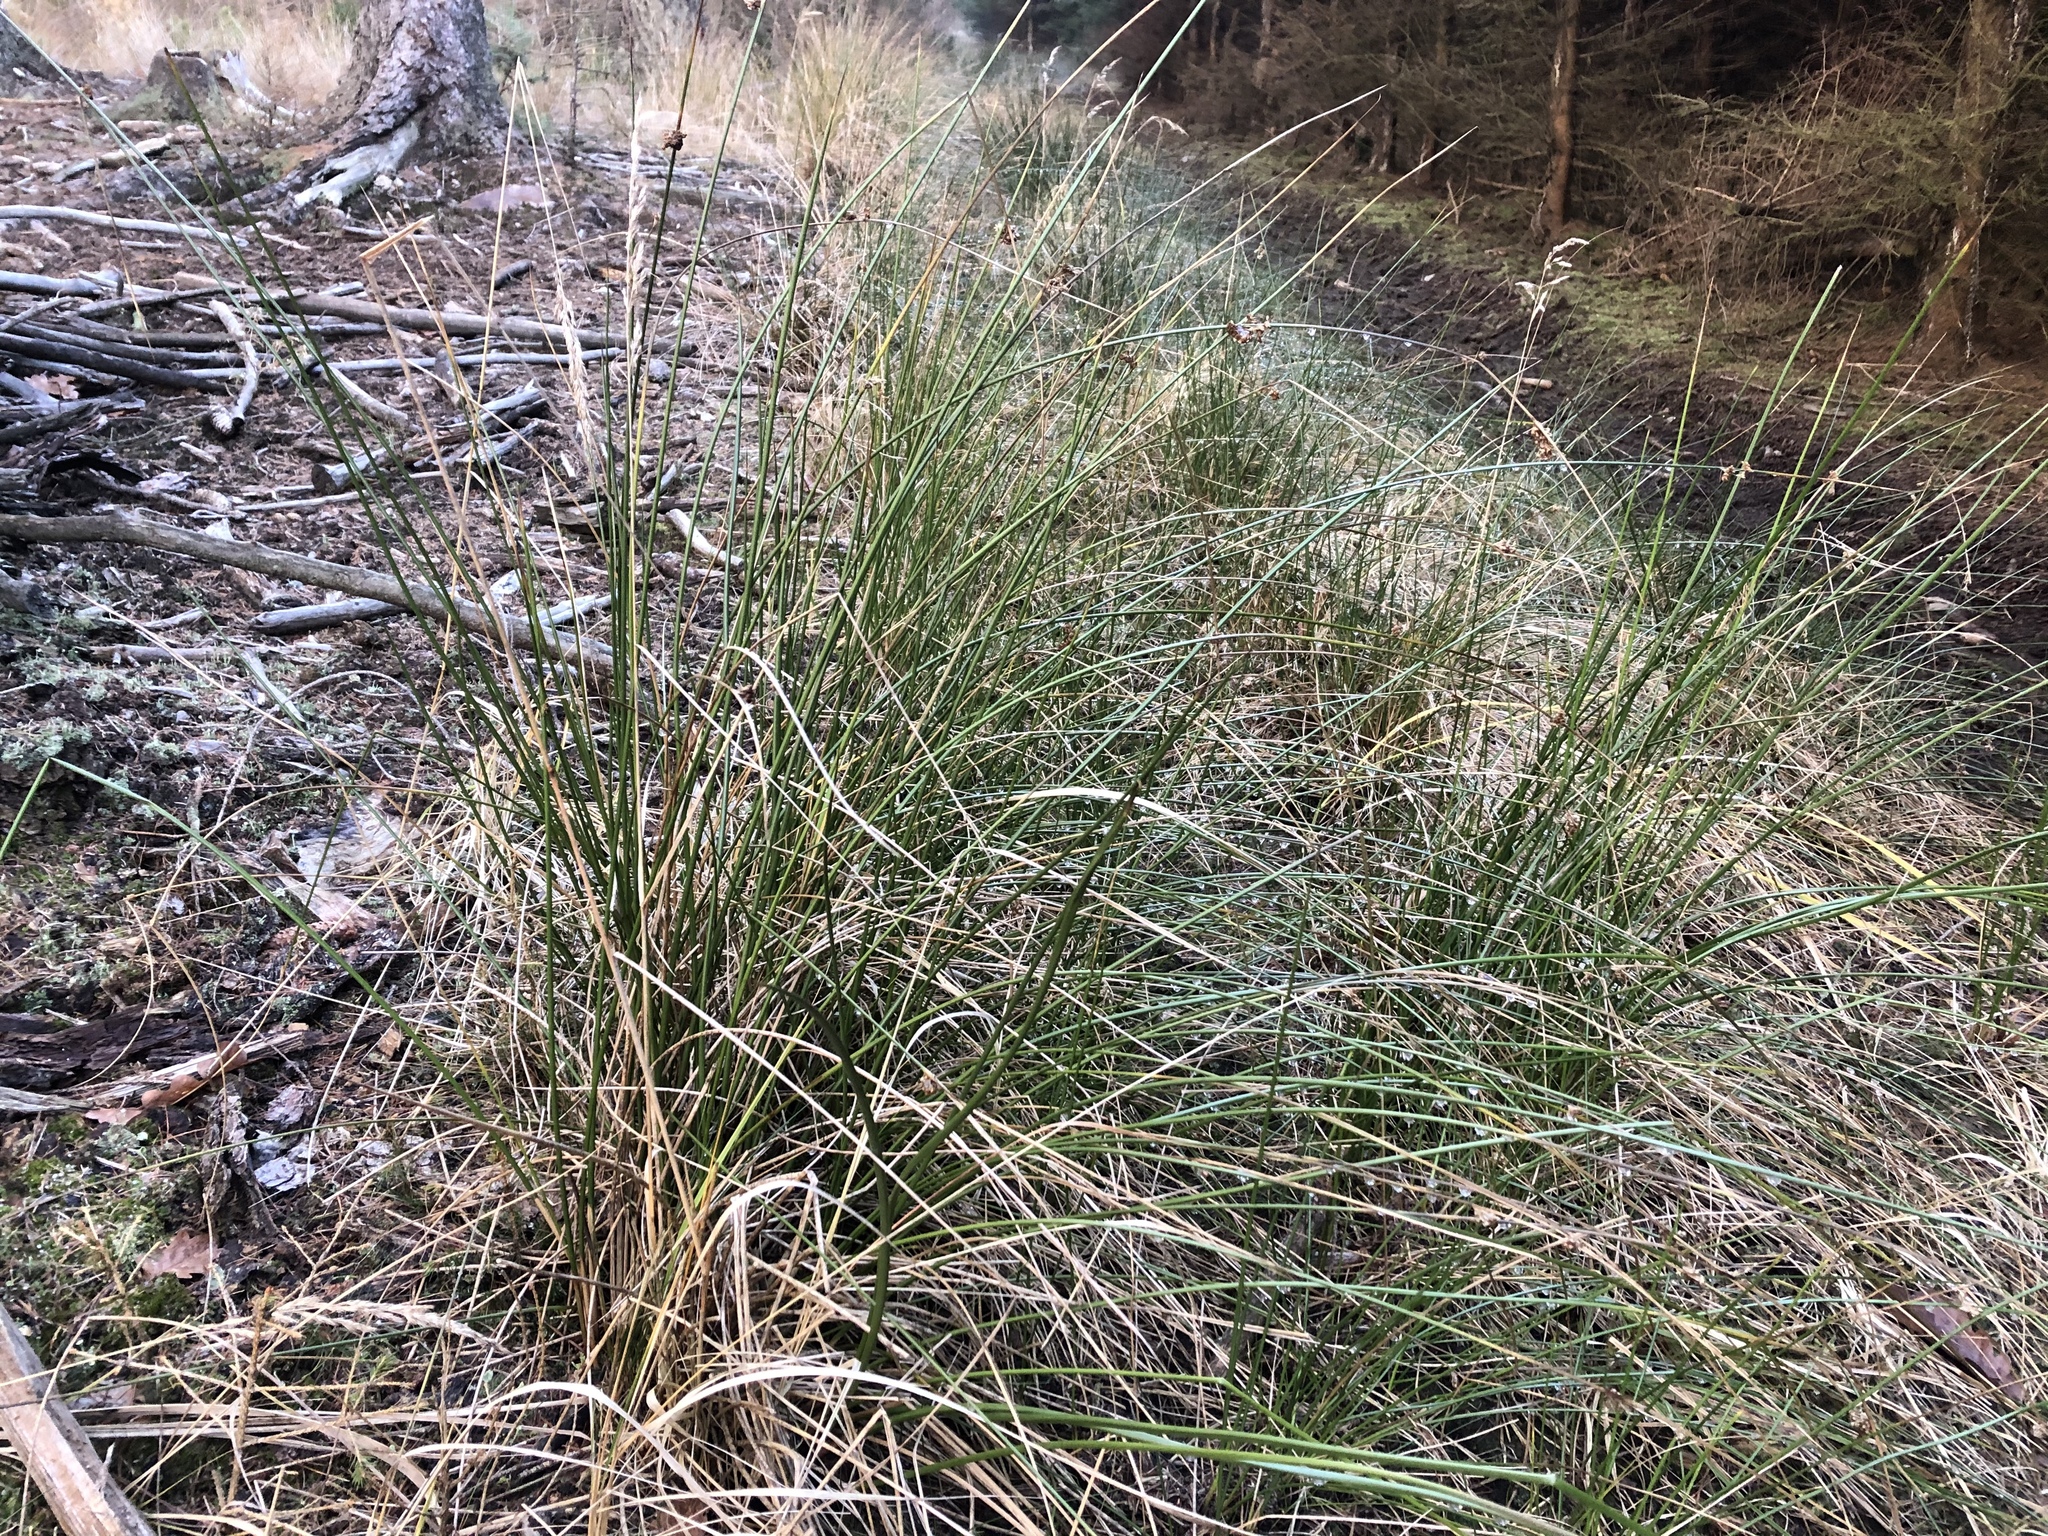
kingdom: Plantae
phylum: Tracheophyta
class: Liliopsida
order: Poales
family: Juncaceae
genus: Juncus
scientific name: Juncus effusus
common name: Soft rush
